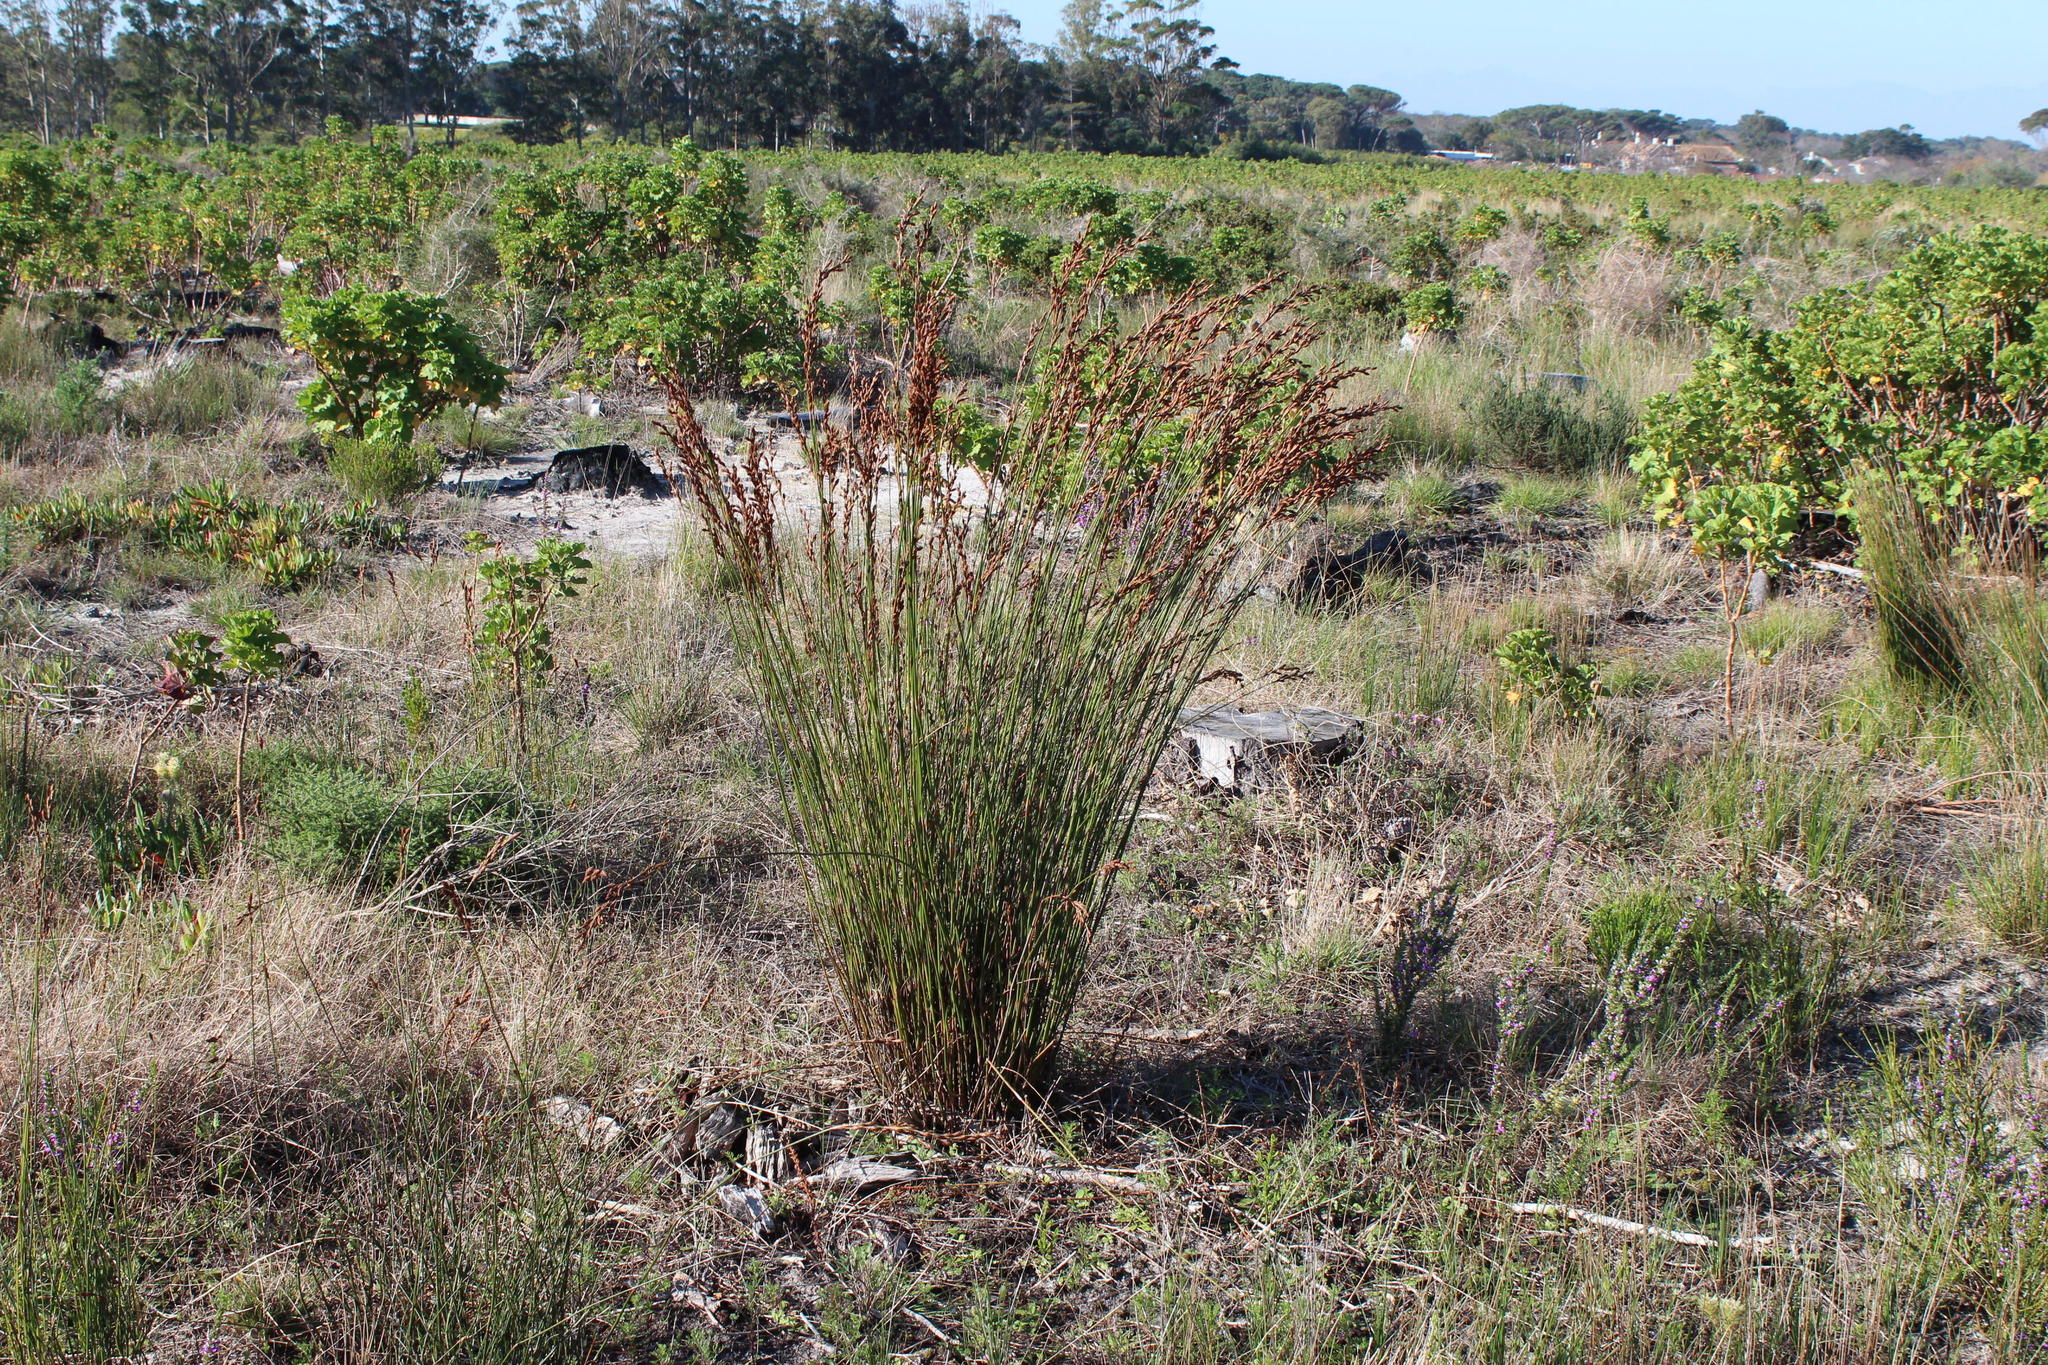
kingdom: Plantae
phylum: Tracheophyta
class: Liliopsida
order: Poales
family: Restionaceae
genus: Restio
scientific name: Restio bifurcus
